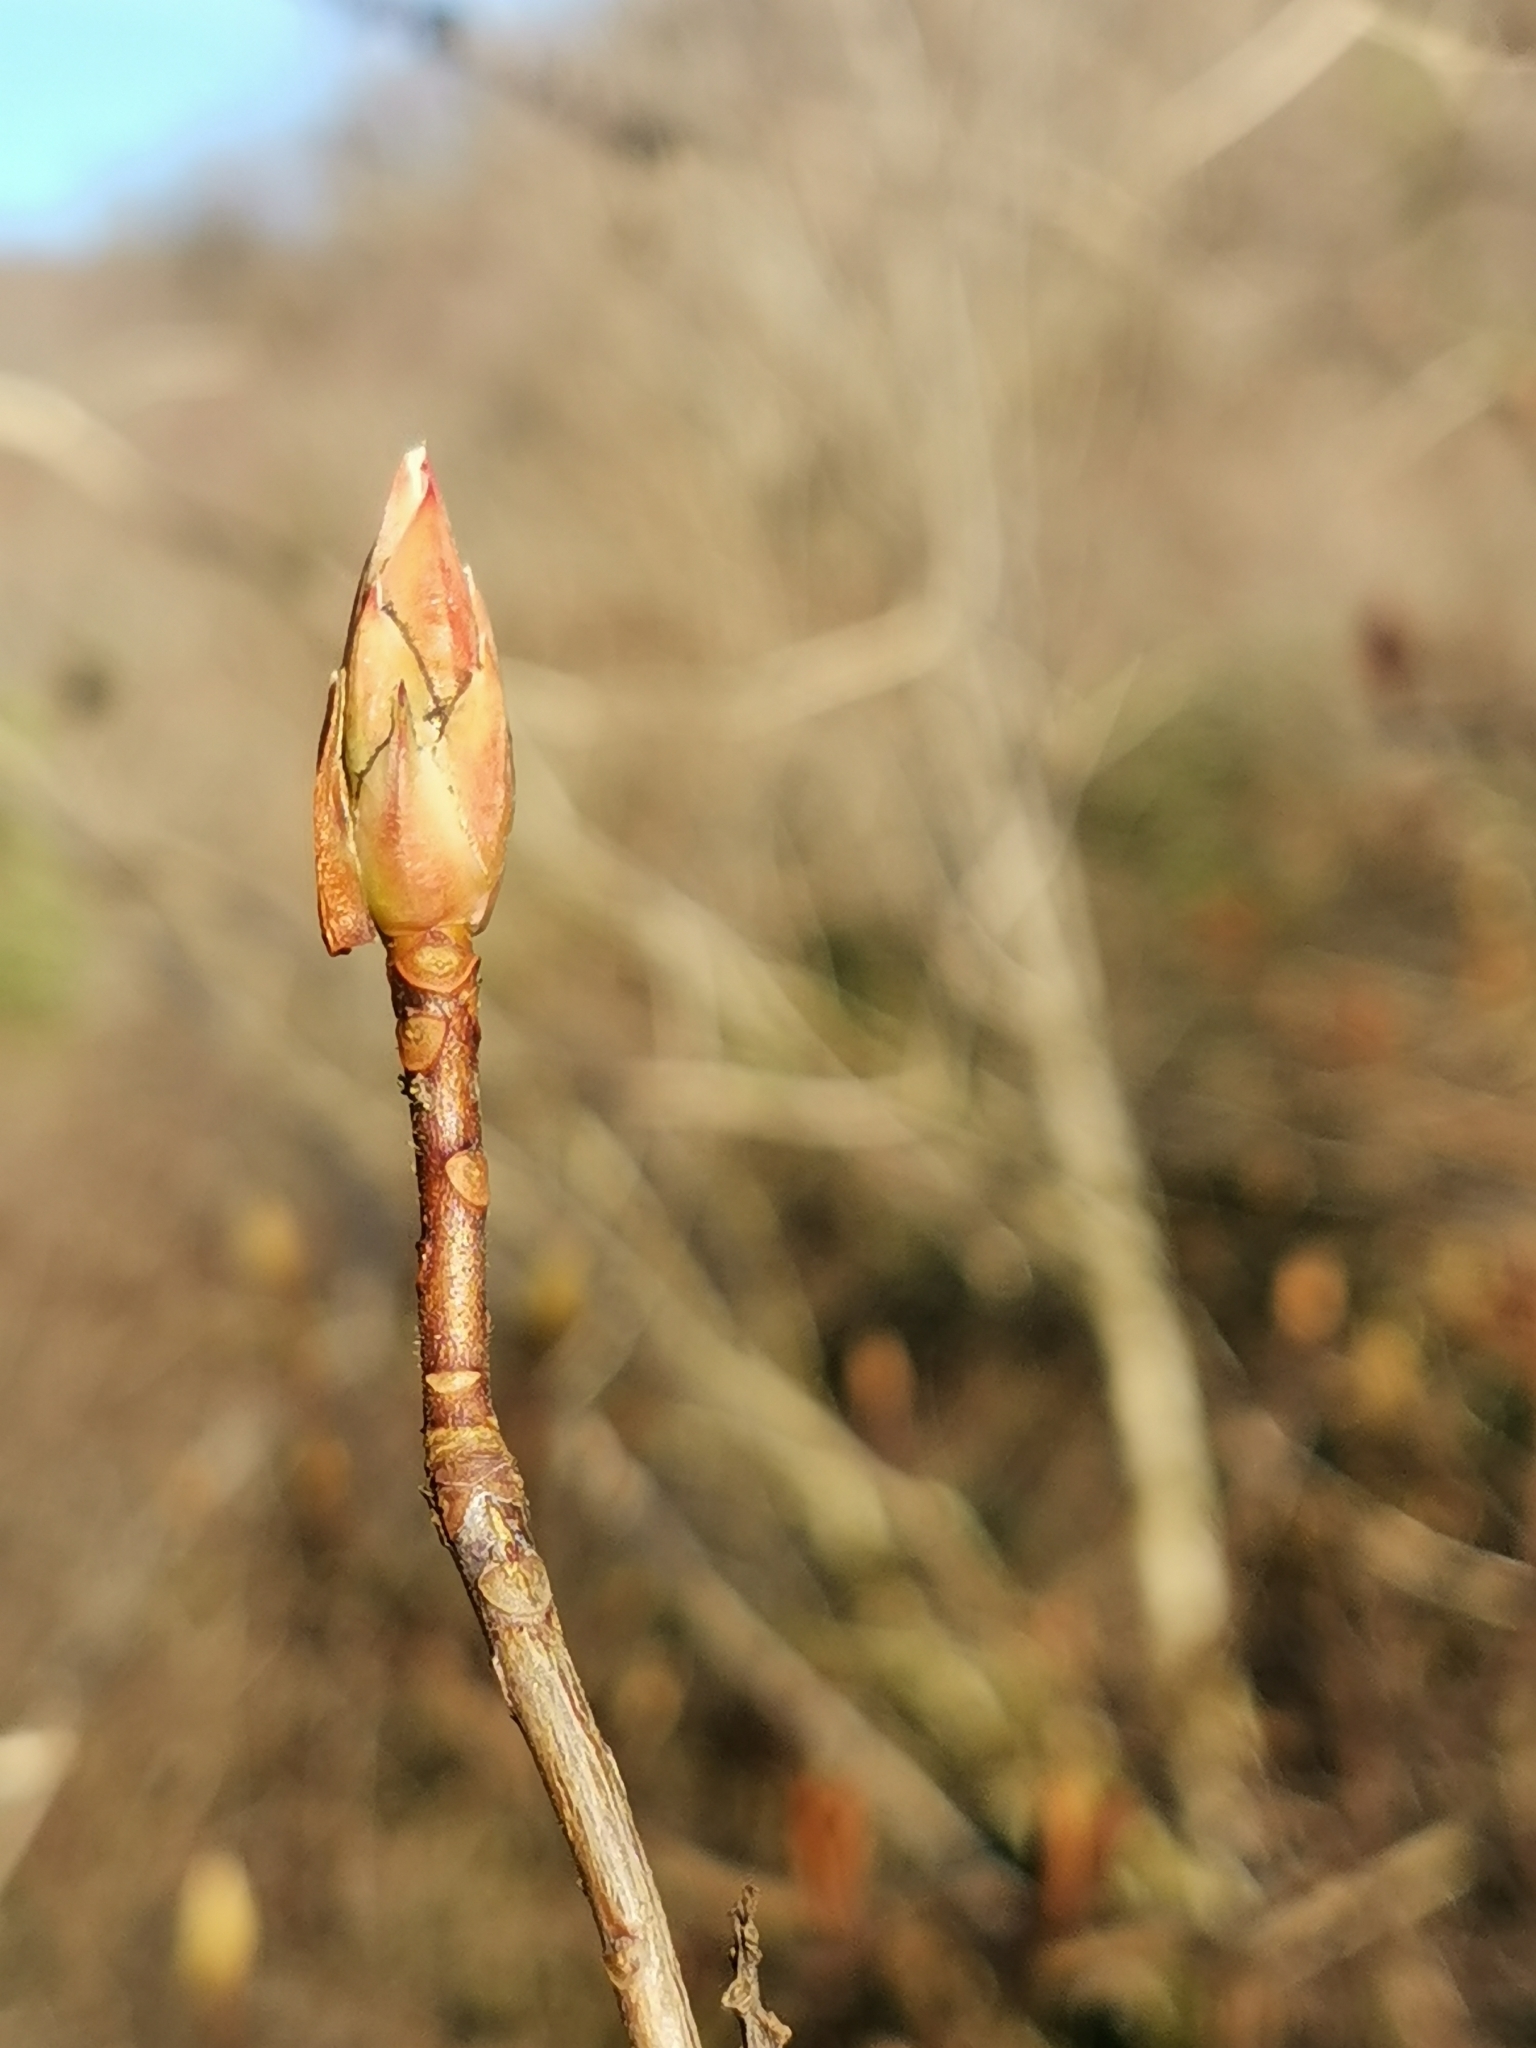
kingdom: Plantae
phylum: Tracheophyta
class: Magnoliopsida
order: Ericales
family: Ericaceae
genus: Rhododendron
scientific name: Rhododendron luteum
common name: Yellow azalea
